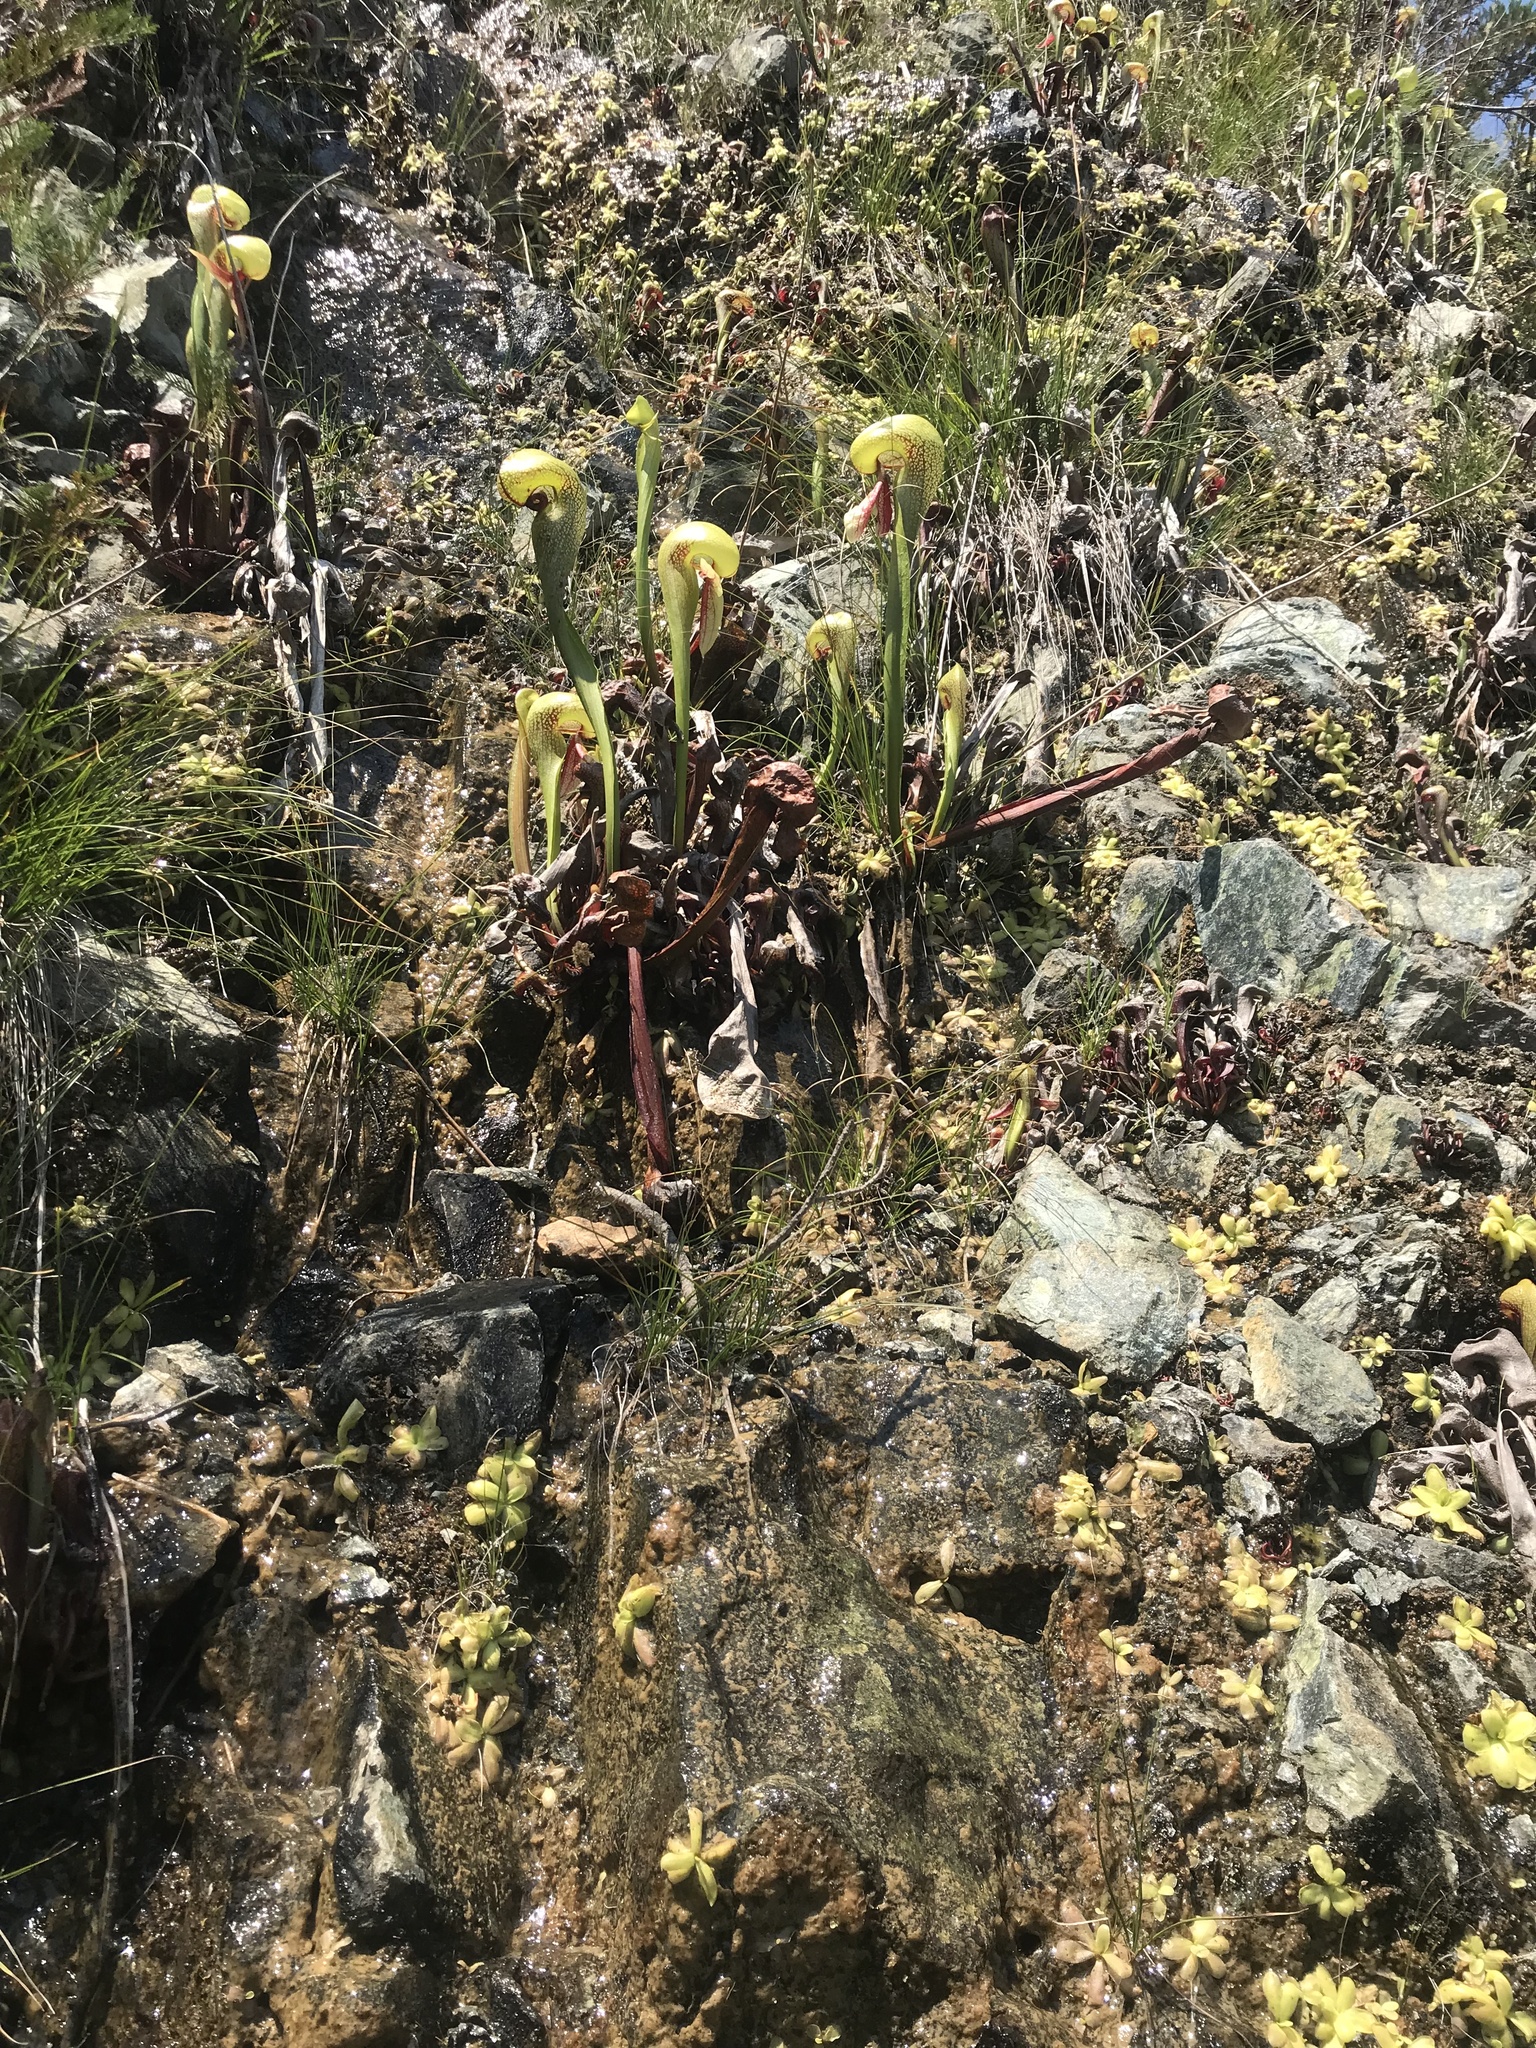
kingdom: Plantae
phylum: Tracheophyta
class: Magnoliopsida
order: Ericales
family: Sarraceniaceae
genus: Darlingtonia
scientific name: Darlingtonia californica
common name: California pitcher plant
